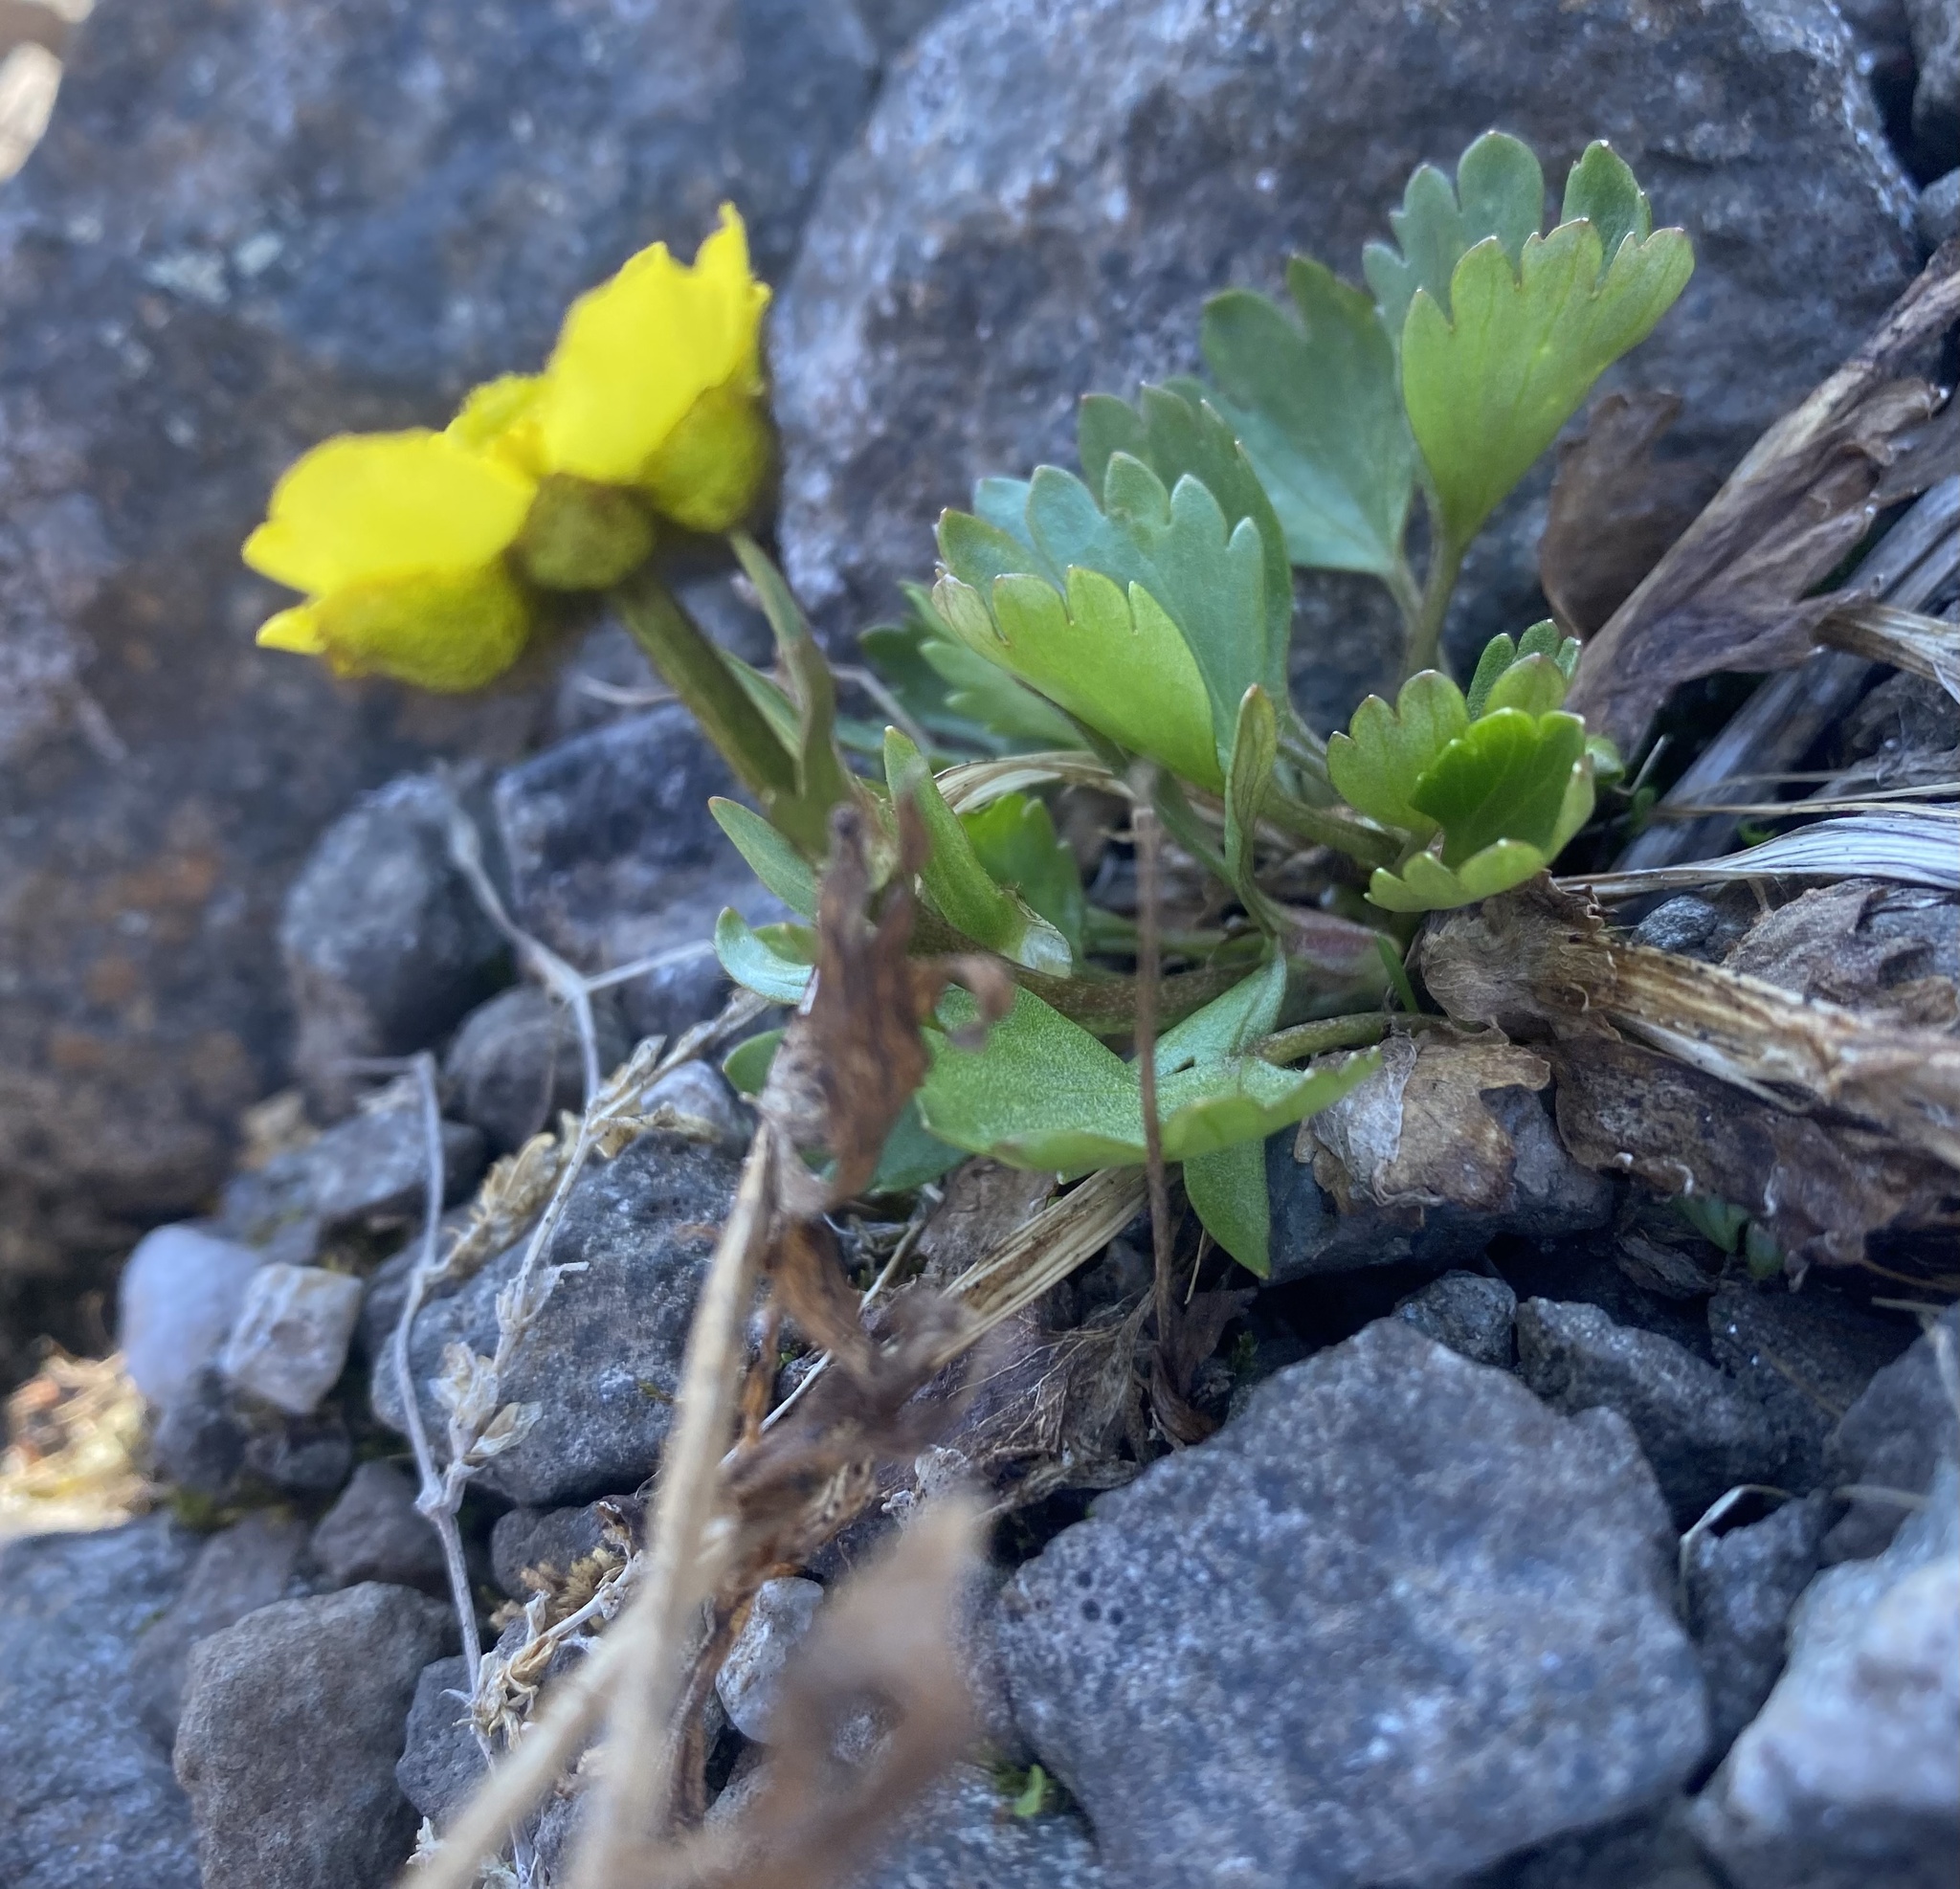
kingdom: Plantae
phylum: Tracheophyta
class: Magnoliopsida
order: Ranunculales
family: Ranunculaceae
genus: Ranunculus
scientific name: Ranunculus sulphureus
